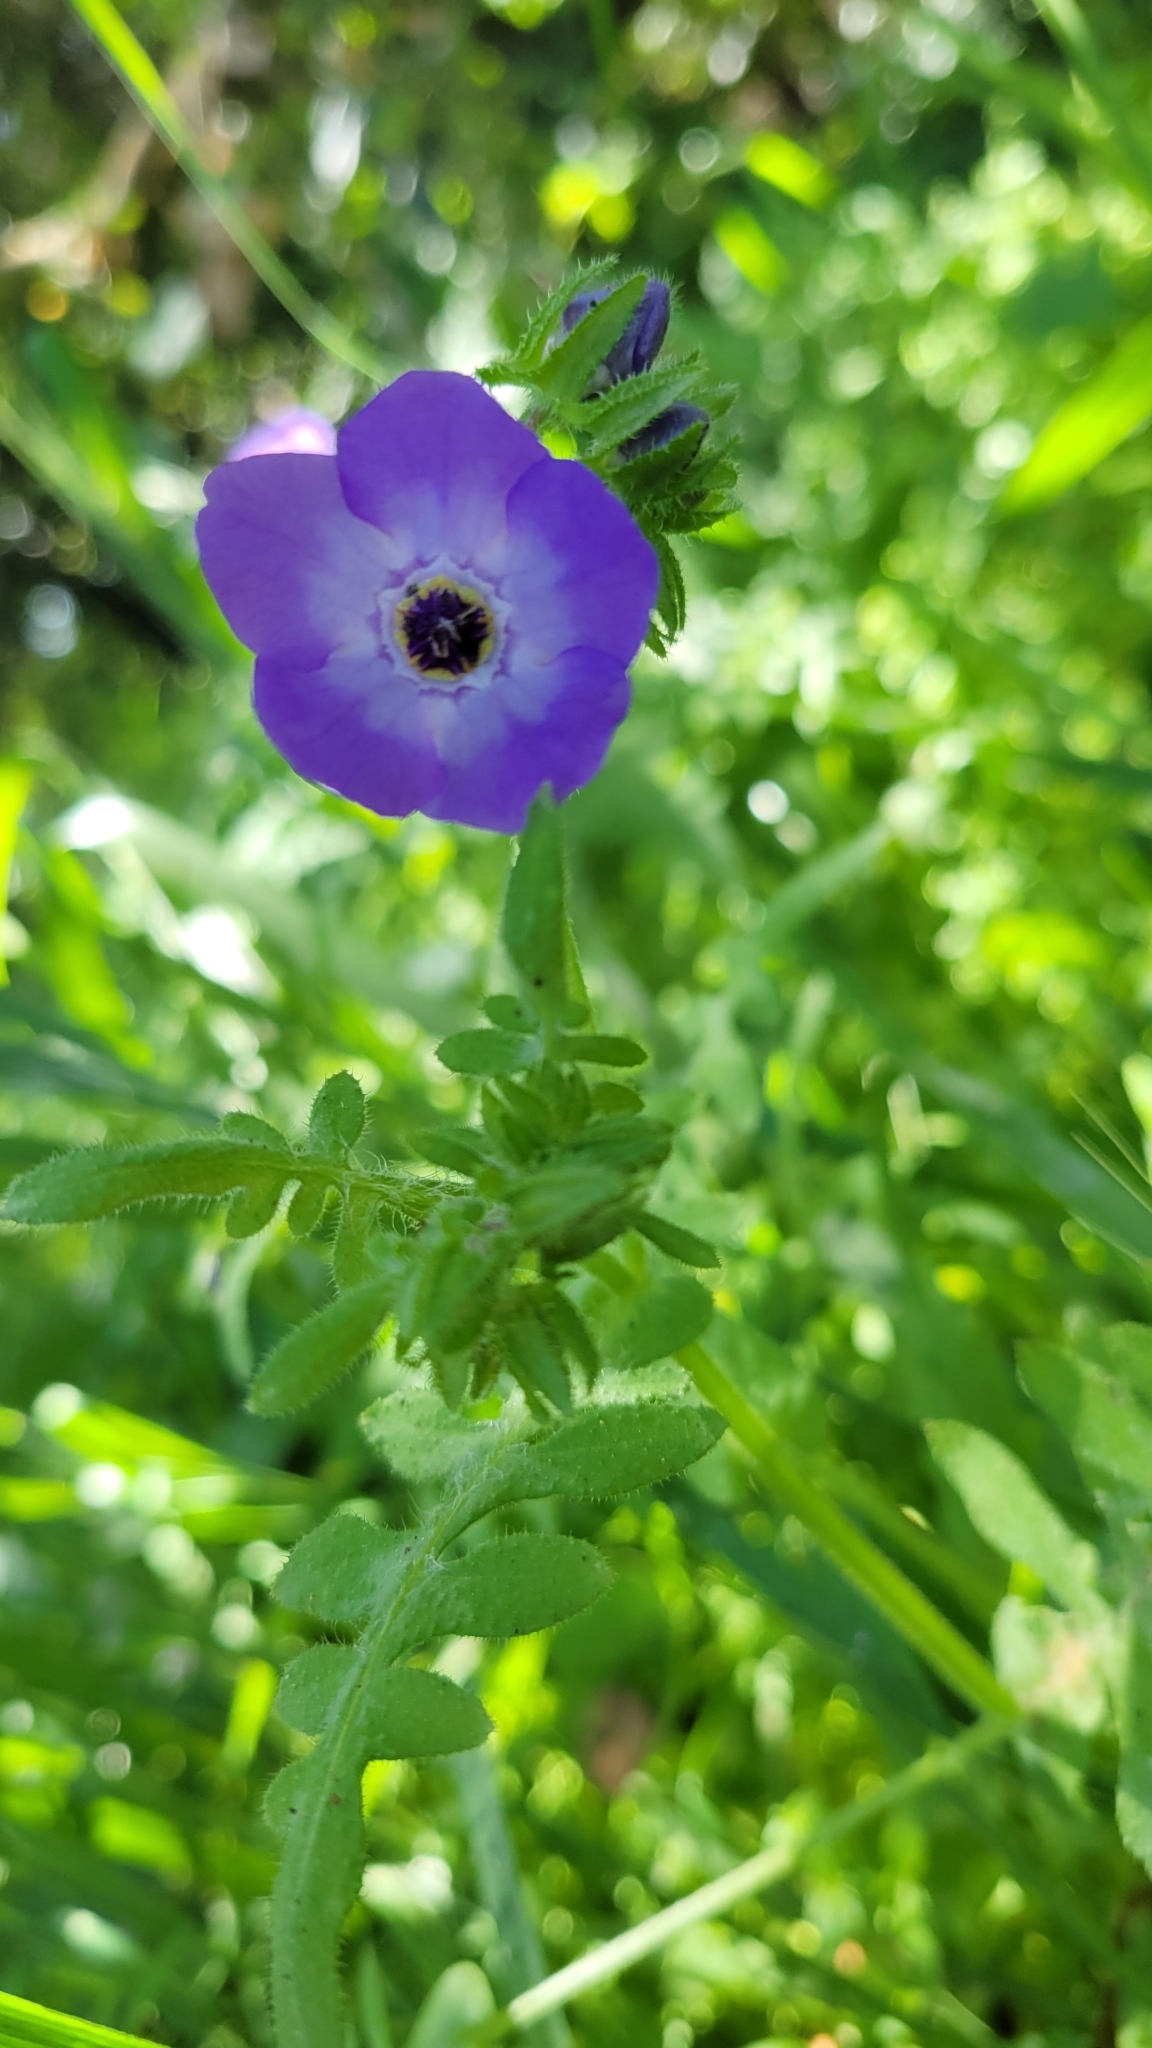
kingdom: Plantae
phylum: Tracheophyta
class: Magnoliopsida
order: Boraginales
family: Hydrophyllaceae
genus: Pholistoma
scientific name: Pholistoma auritum
